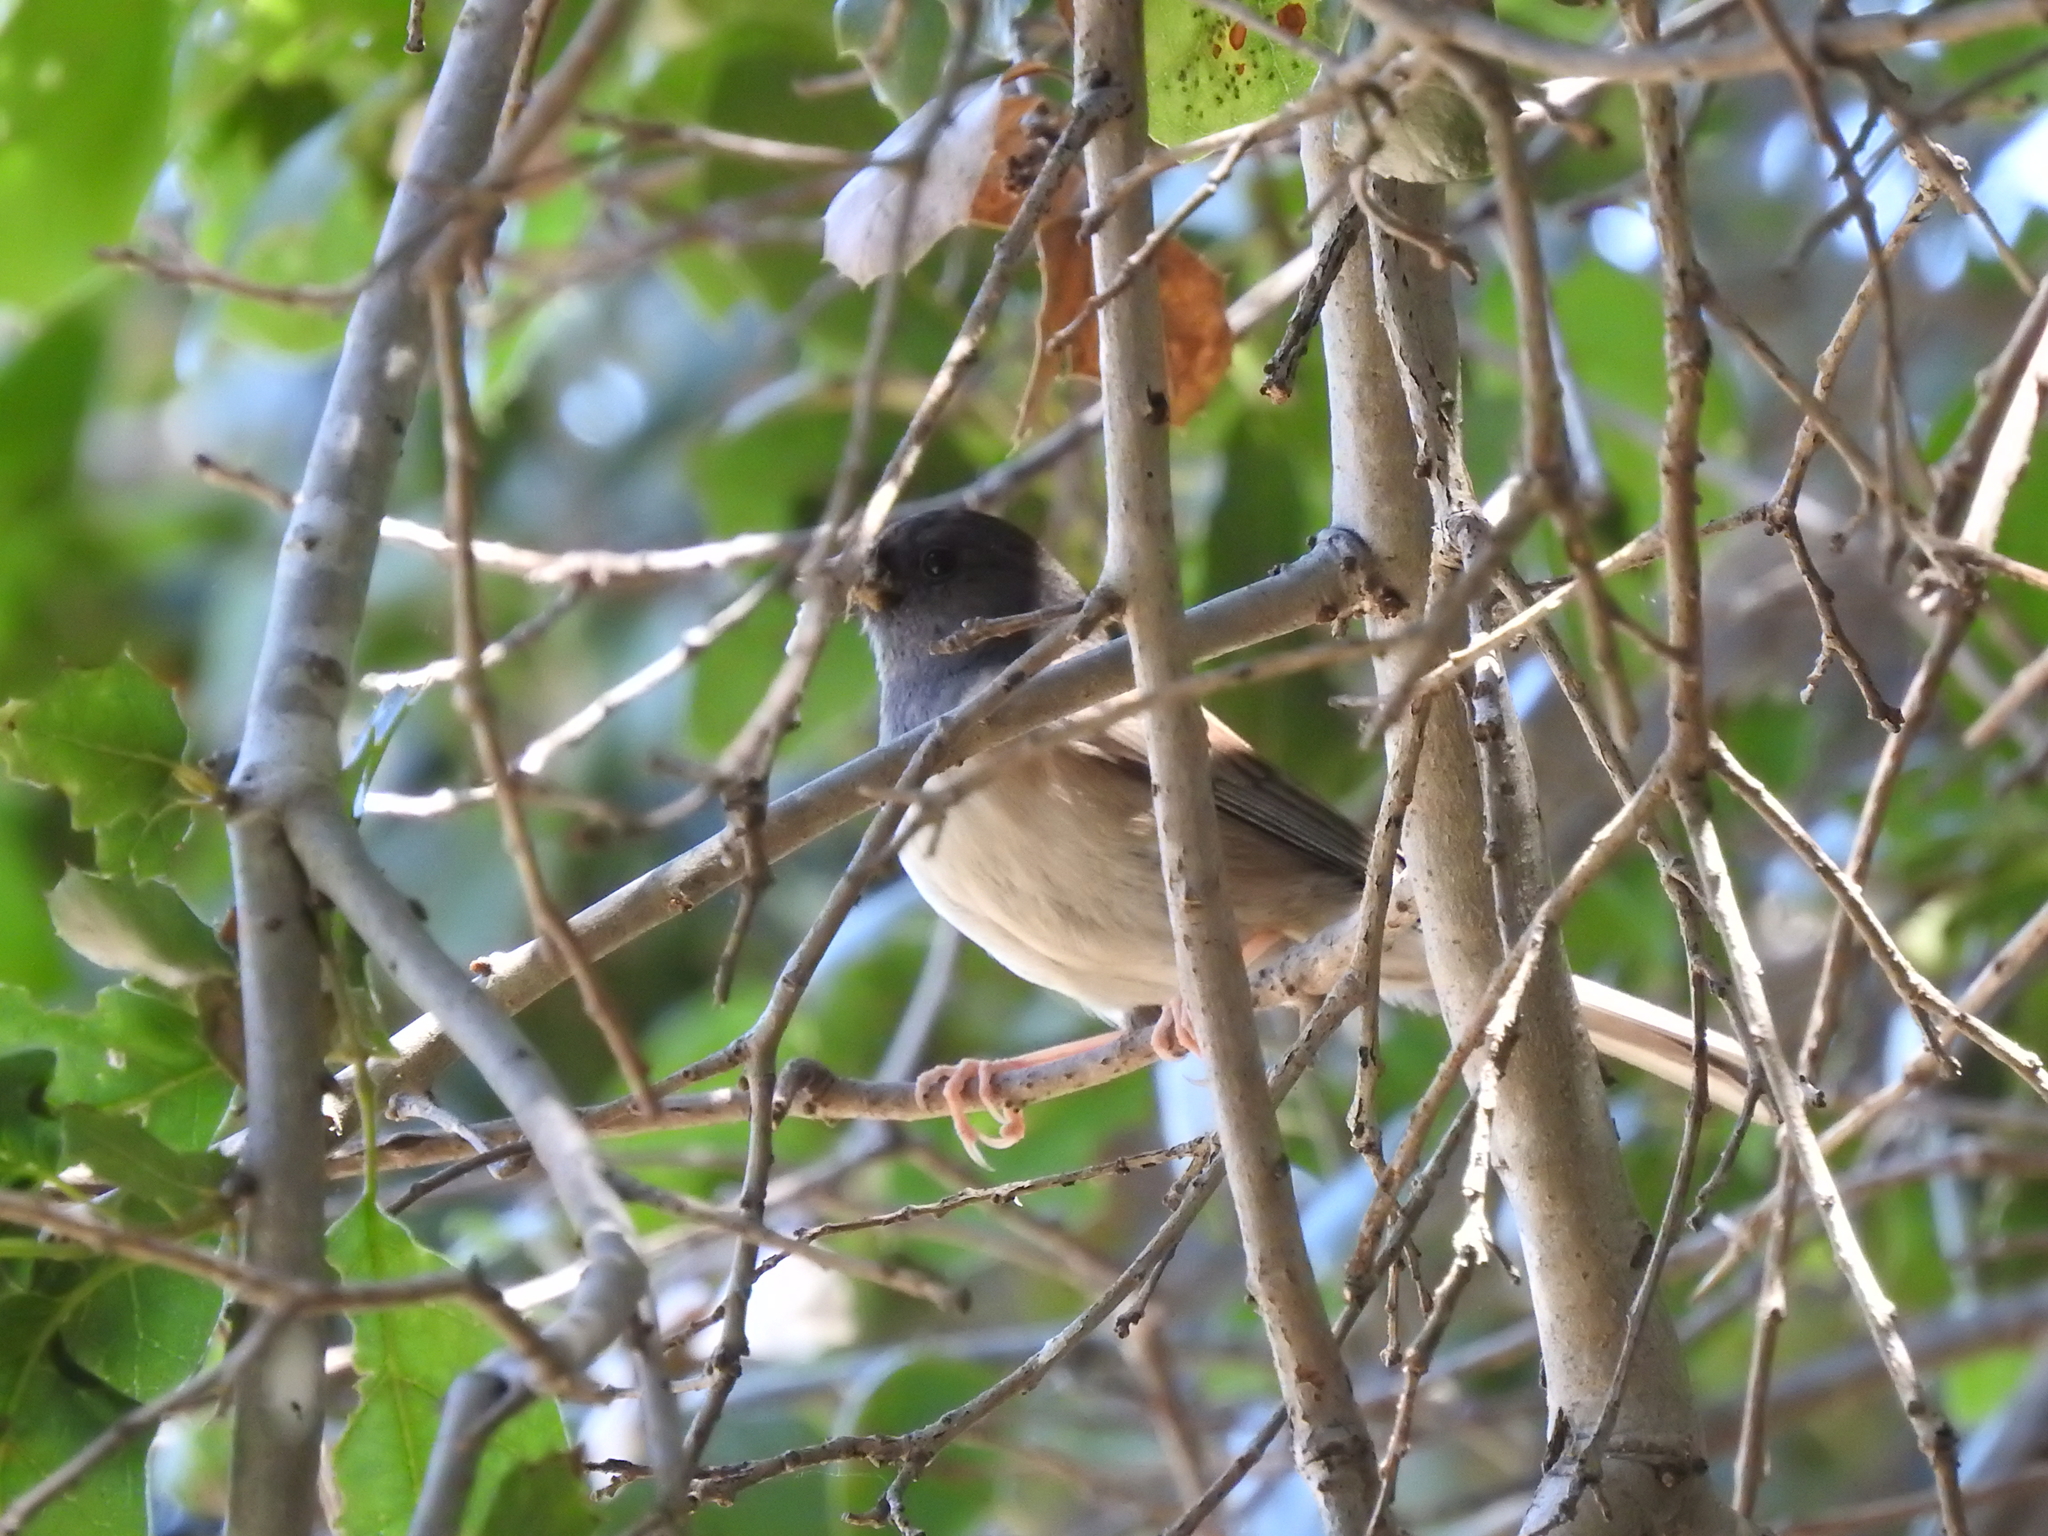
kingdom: Animalia
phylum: Chordata
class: Aves
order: Passeriformes
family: Passerellidae
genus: Junco
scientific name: Junco hyemalis
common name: Dark-eyed junco
